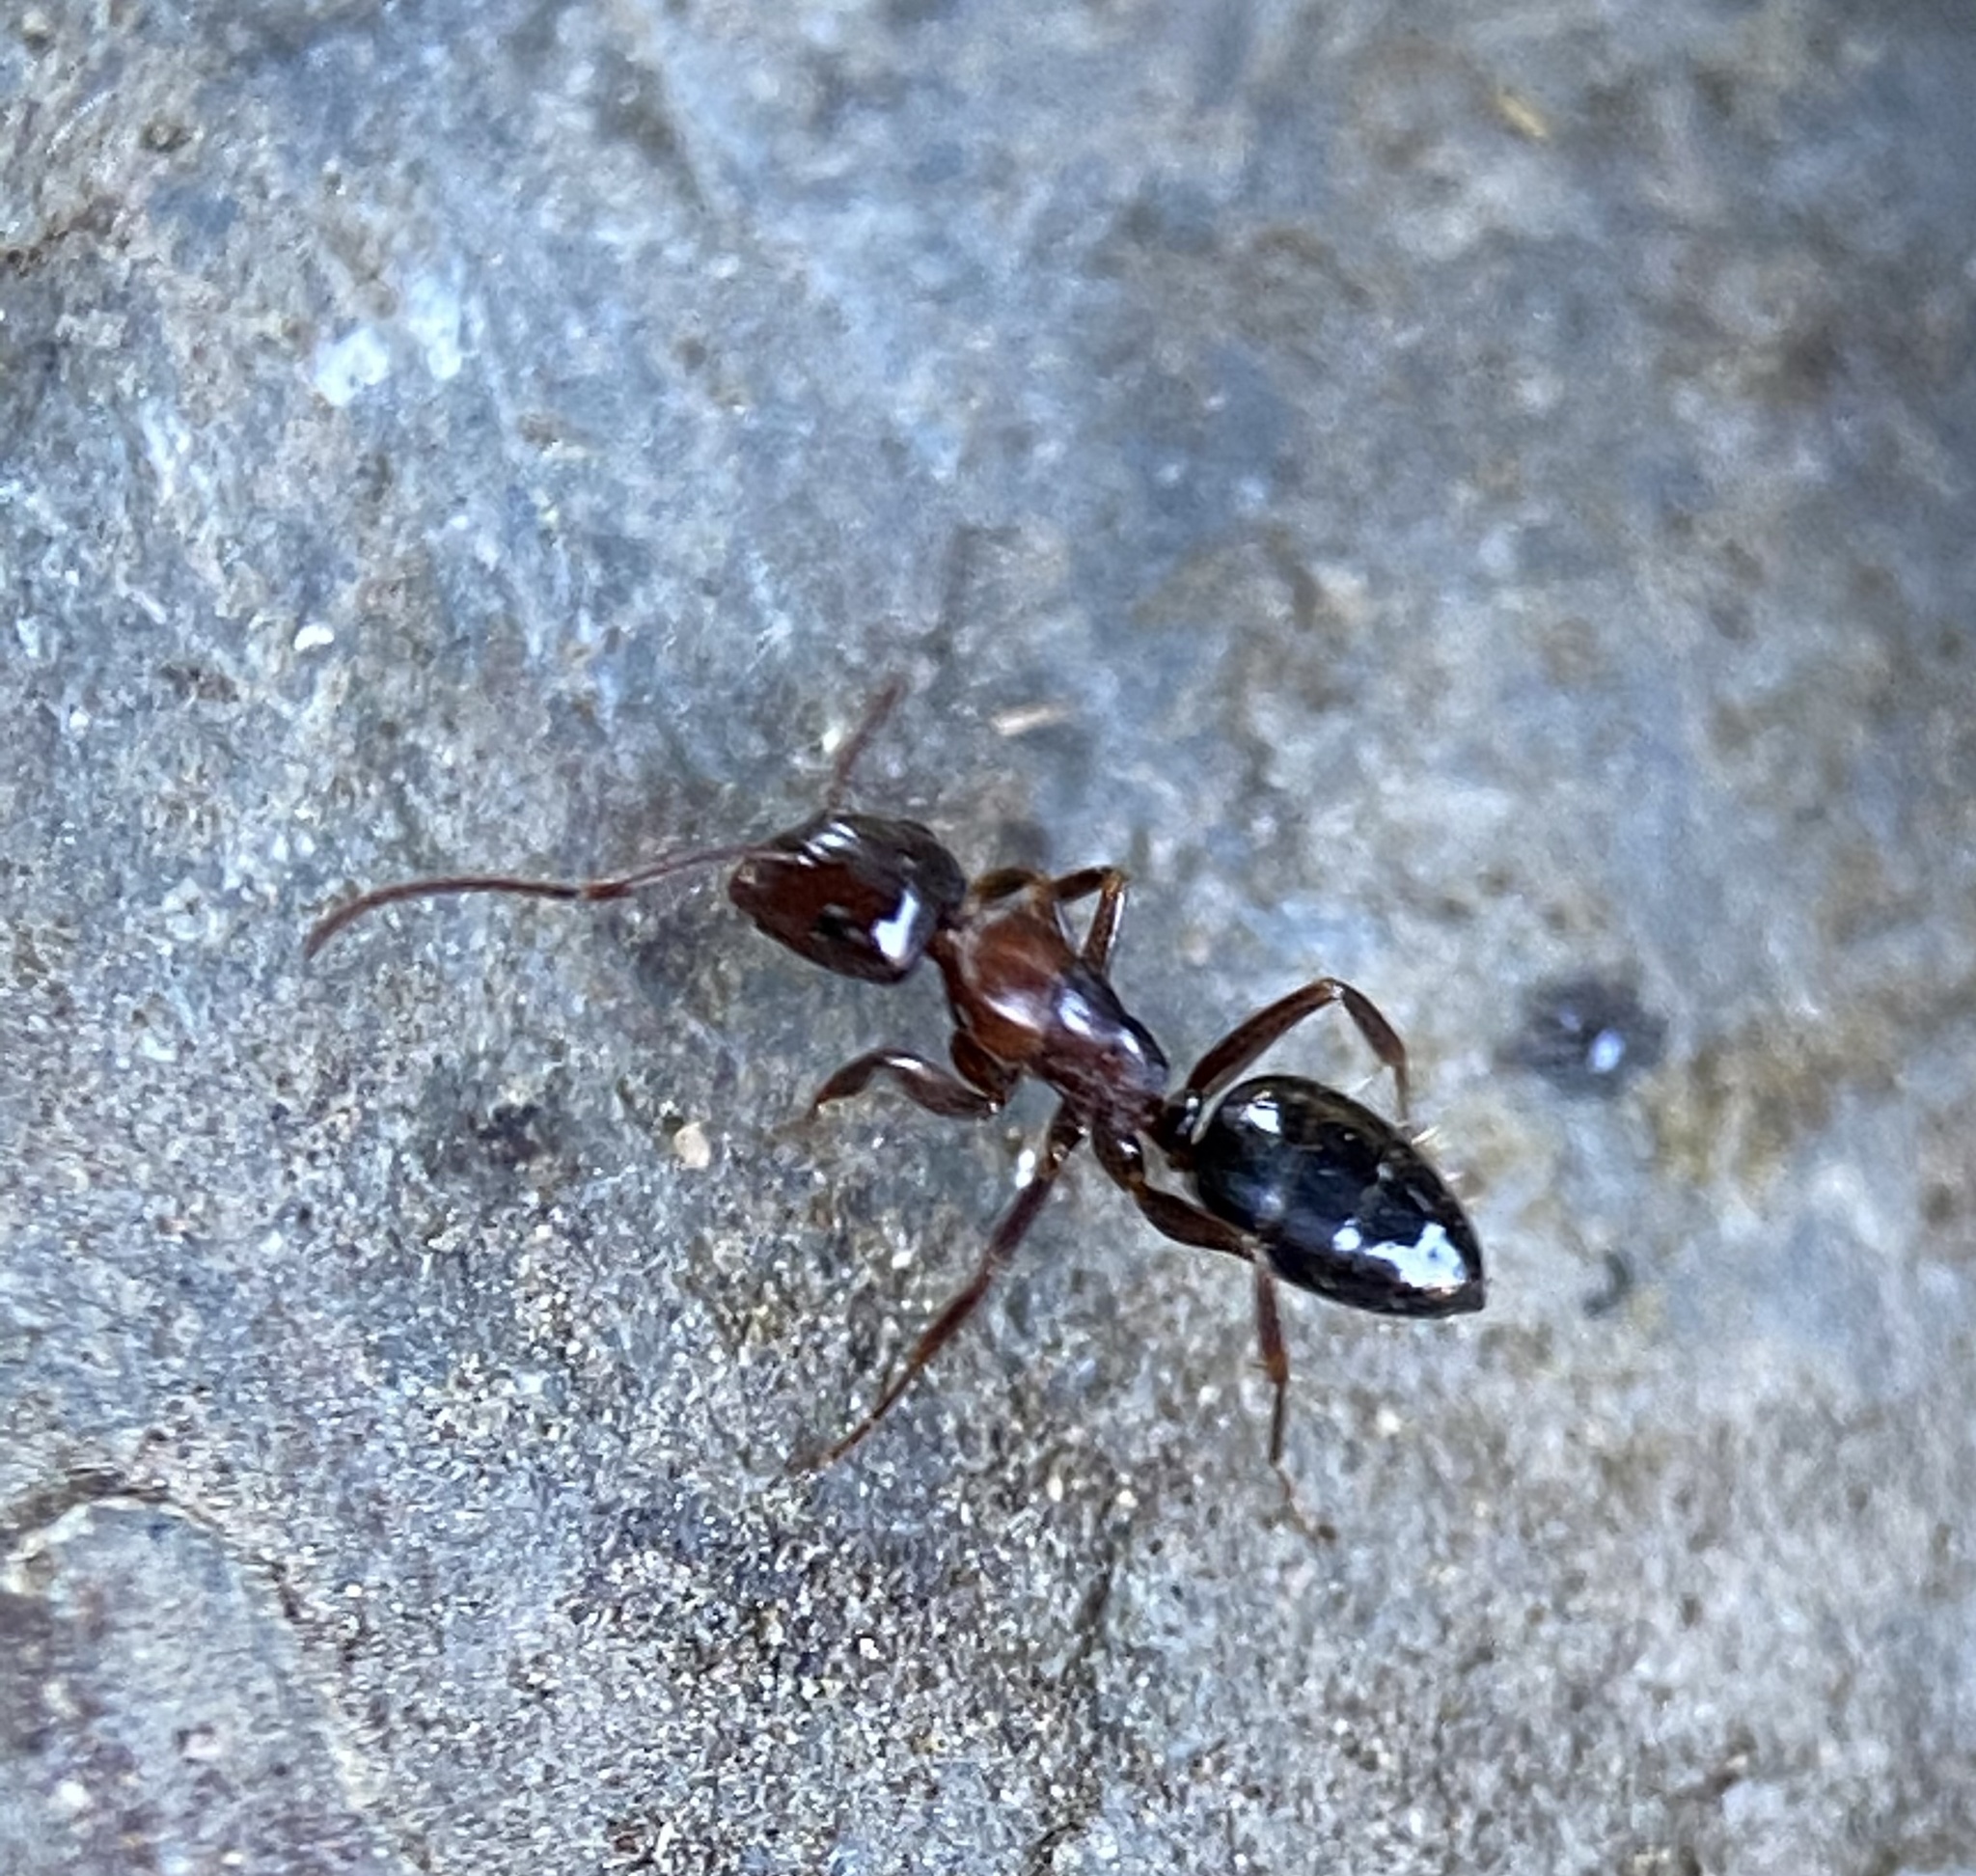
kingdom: Animalia
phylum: Arthropoda
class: Insecta
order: Hymenoptera
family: Formicidae
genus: Camponotus
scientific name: Camponotus hyatti
